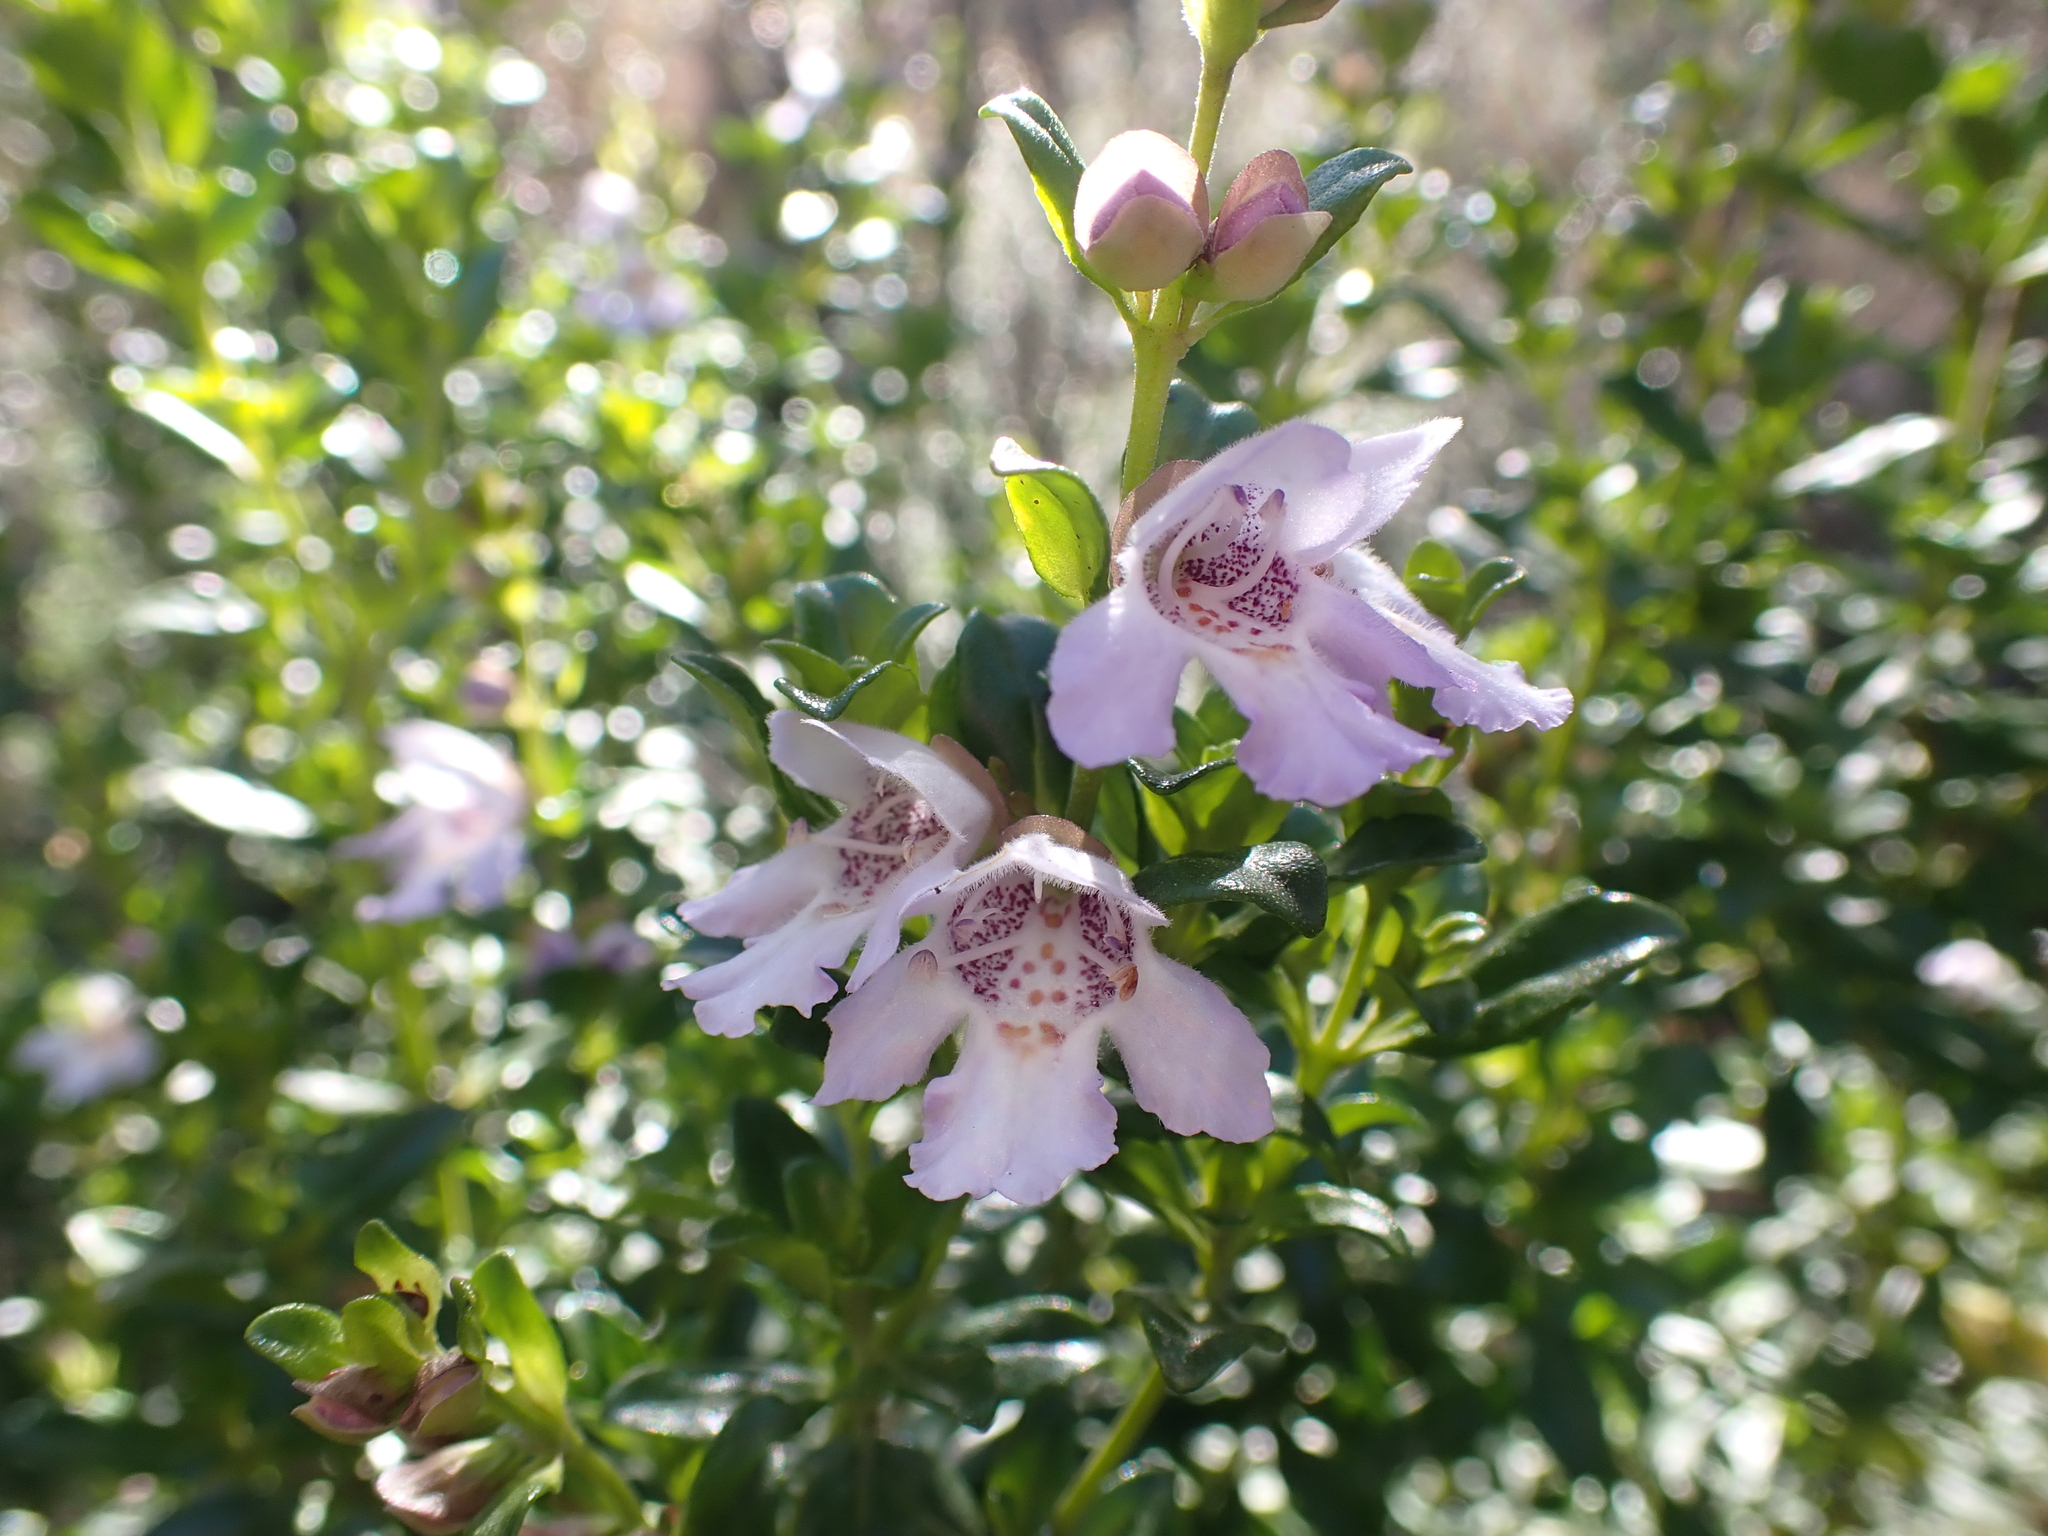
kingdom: Plantae
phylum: Tracheophyta
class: Magnoliopsida
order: Lamiales
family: Lamiaceae
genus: Prostanthera
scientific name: Prostanthera cuneata
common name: Alpine mintbush
